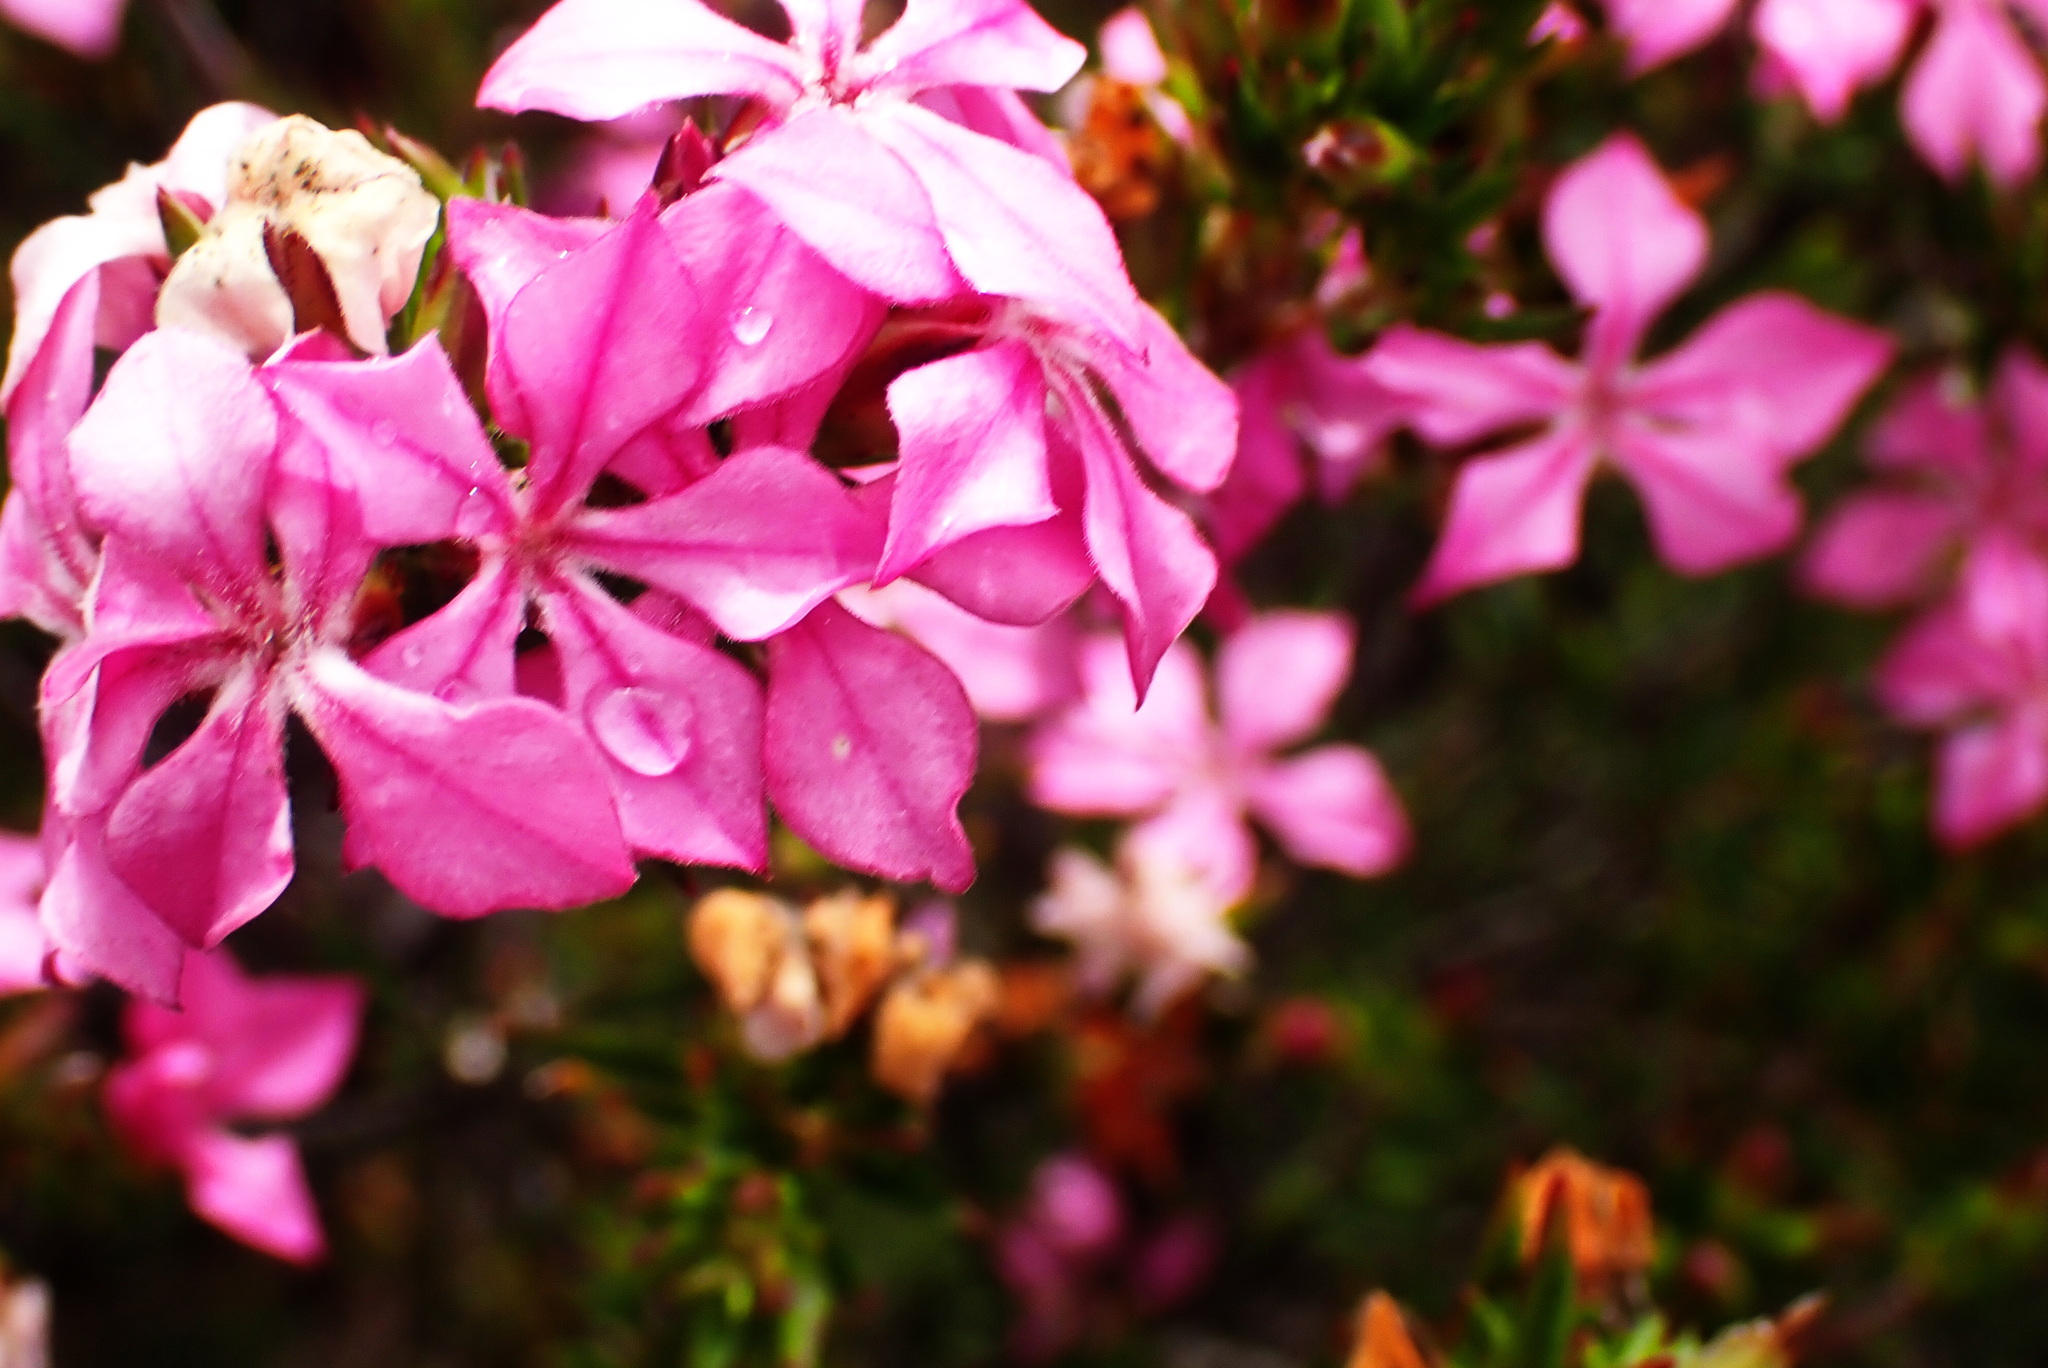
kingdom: Plantae
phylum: Tracheophyta
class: Magnoliopsida
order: Sapindales
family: Rutaceae
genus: Acmadenia
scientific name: Acmadenia obtusata
